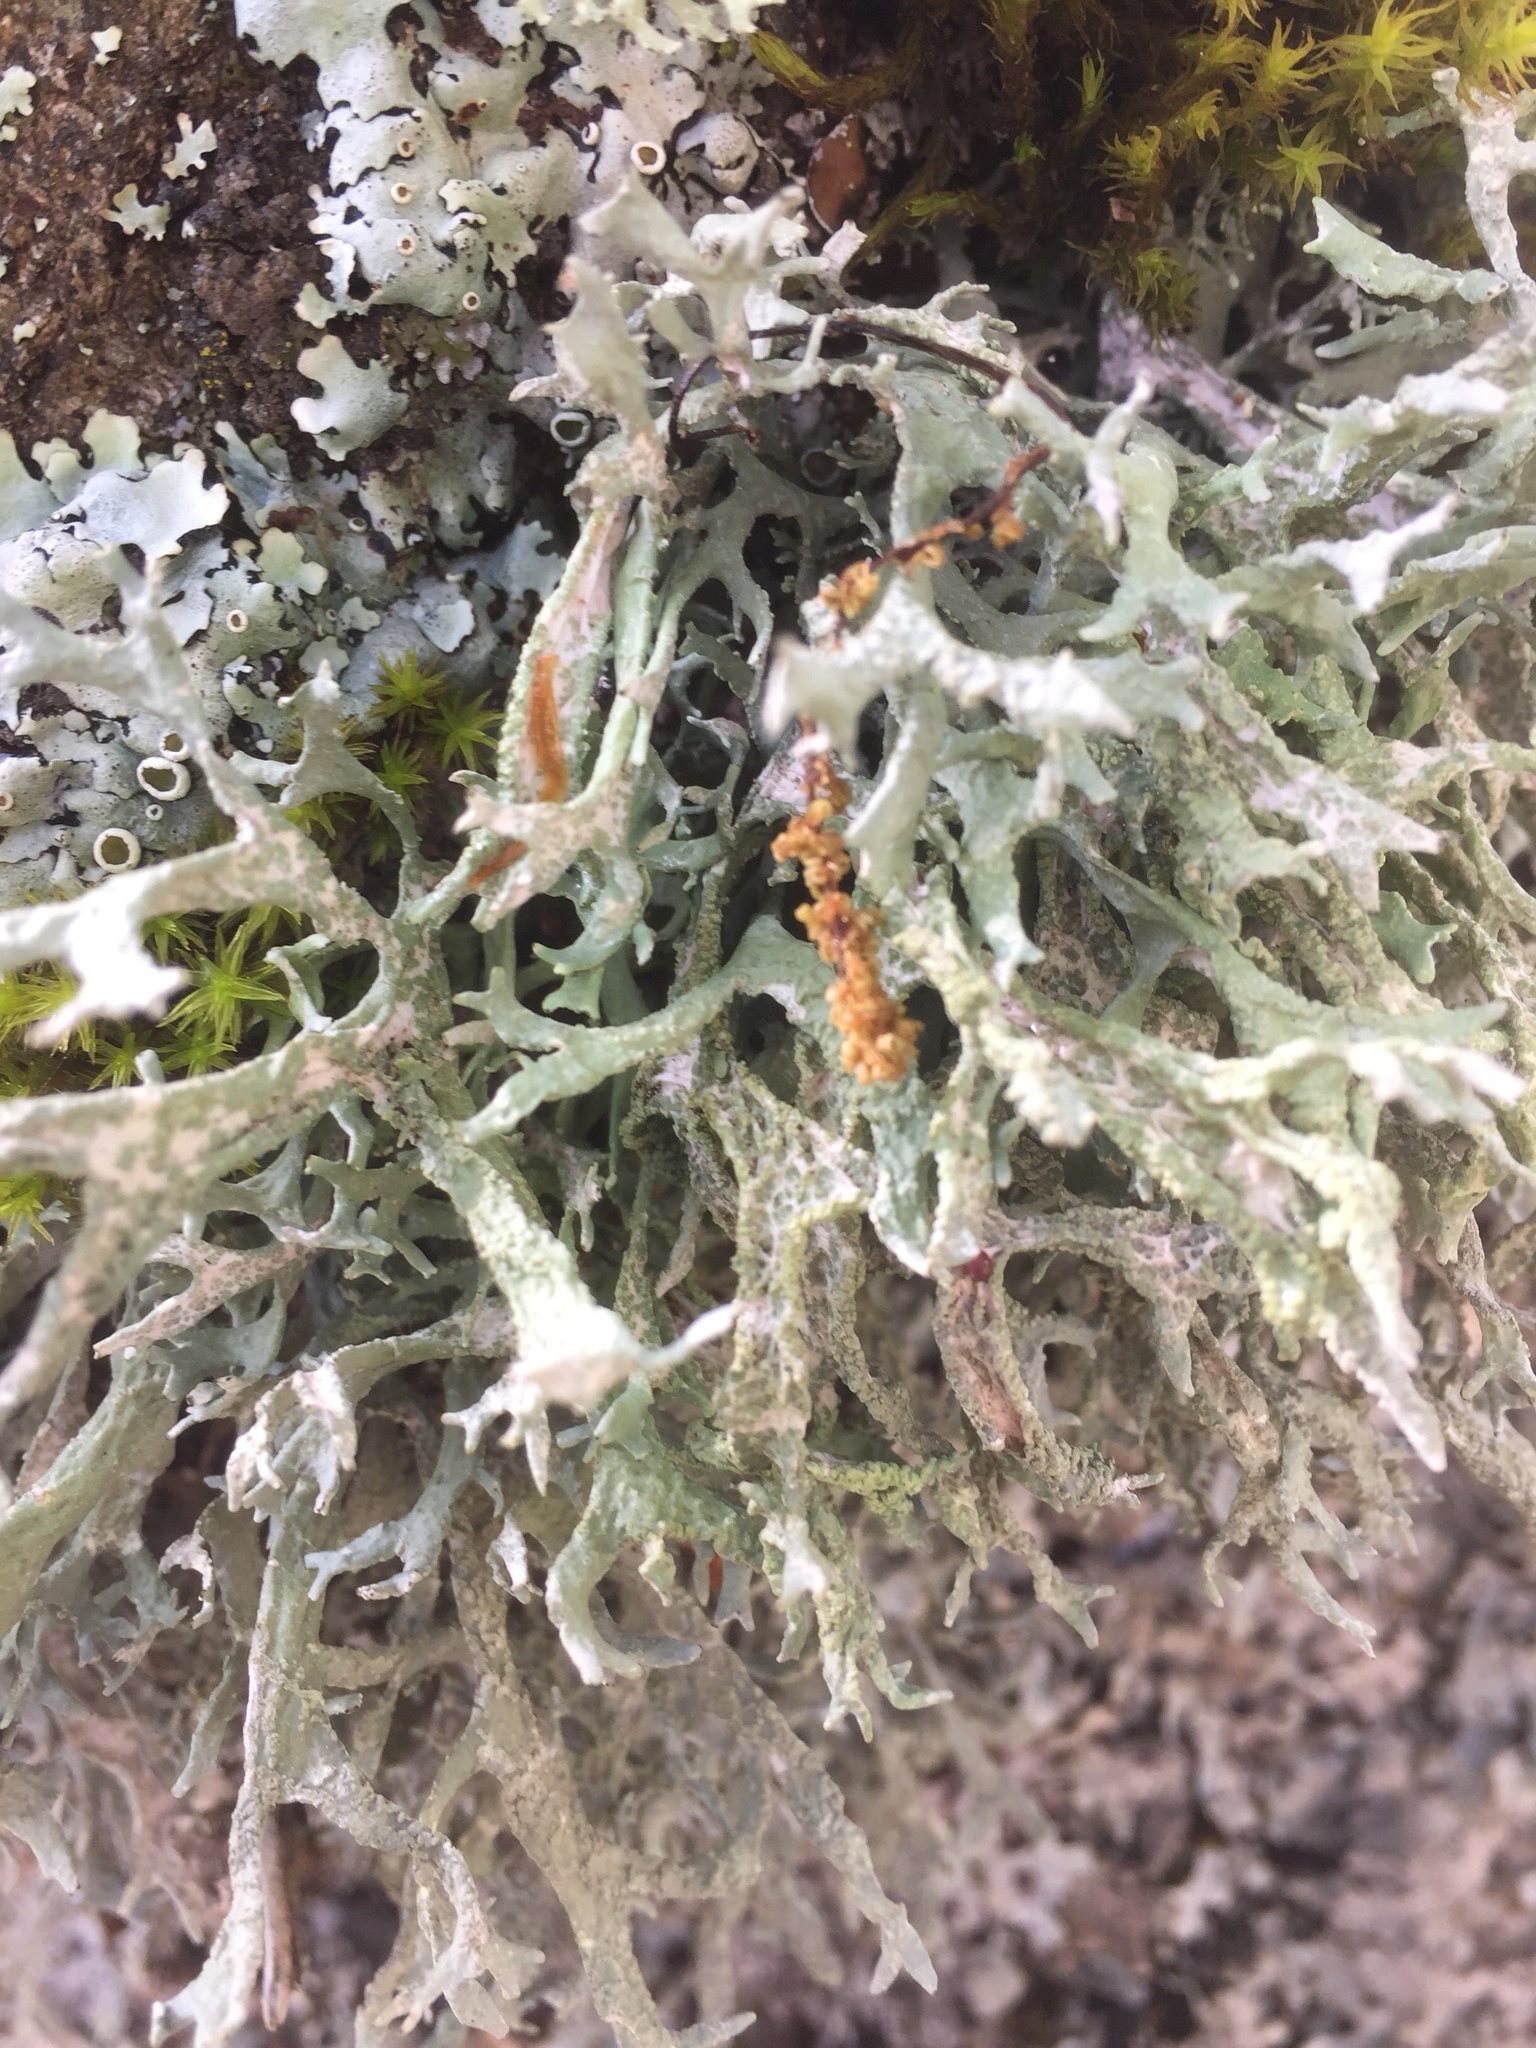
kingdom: Fungi
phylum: Ascomycota
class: Lecanoromycetes
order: Lecanorales
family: Parmeliaceae
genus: Evernia
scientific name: Evernia prunastri
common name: Oak moss
